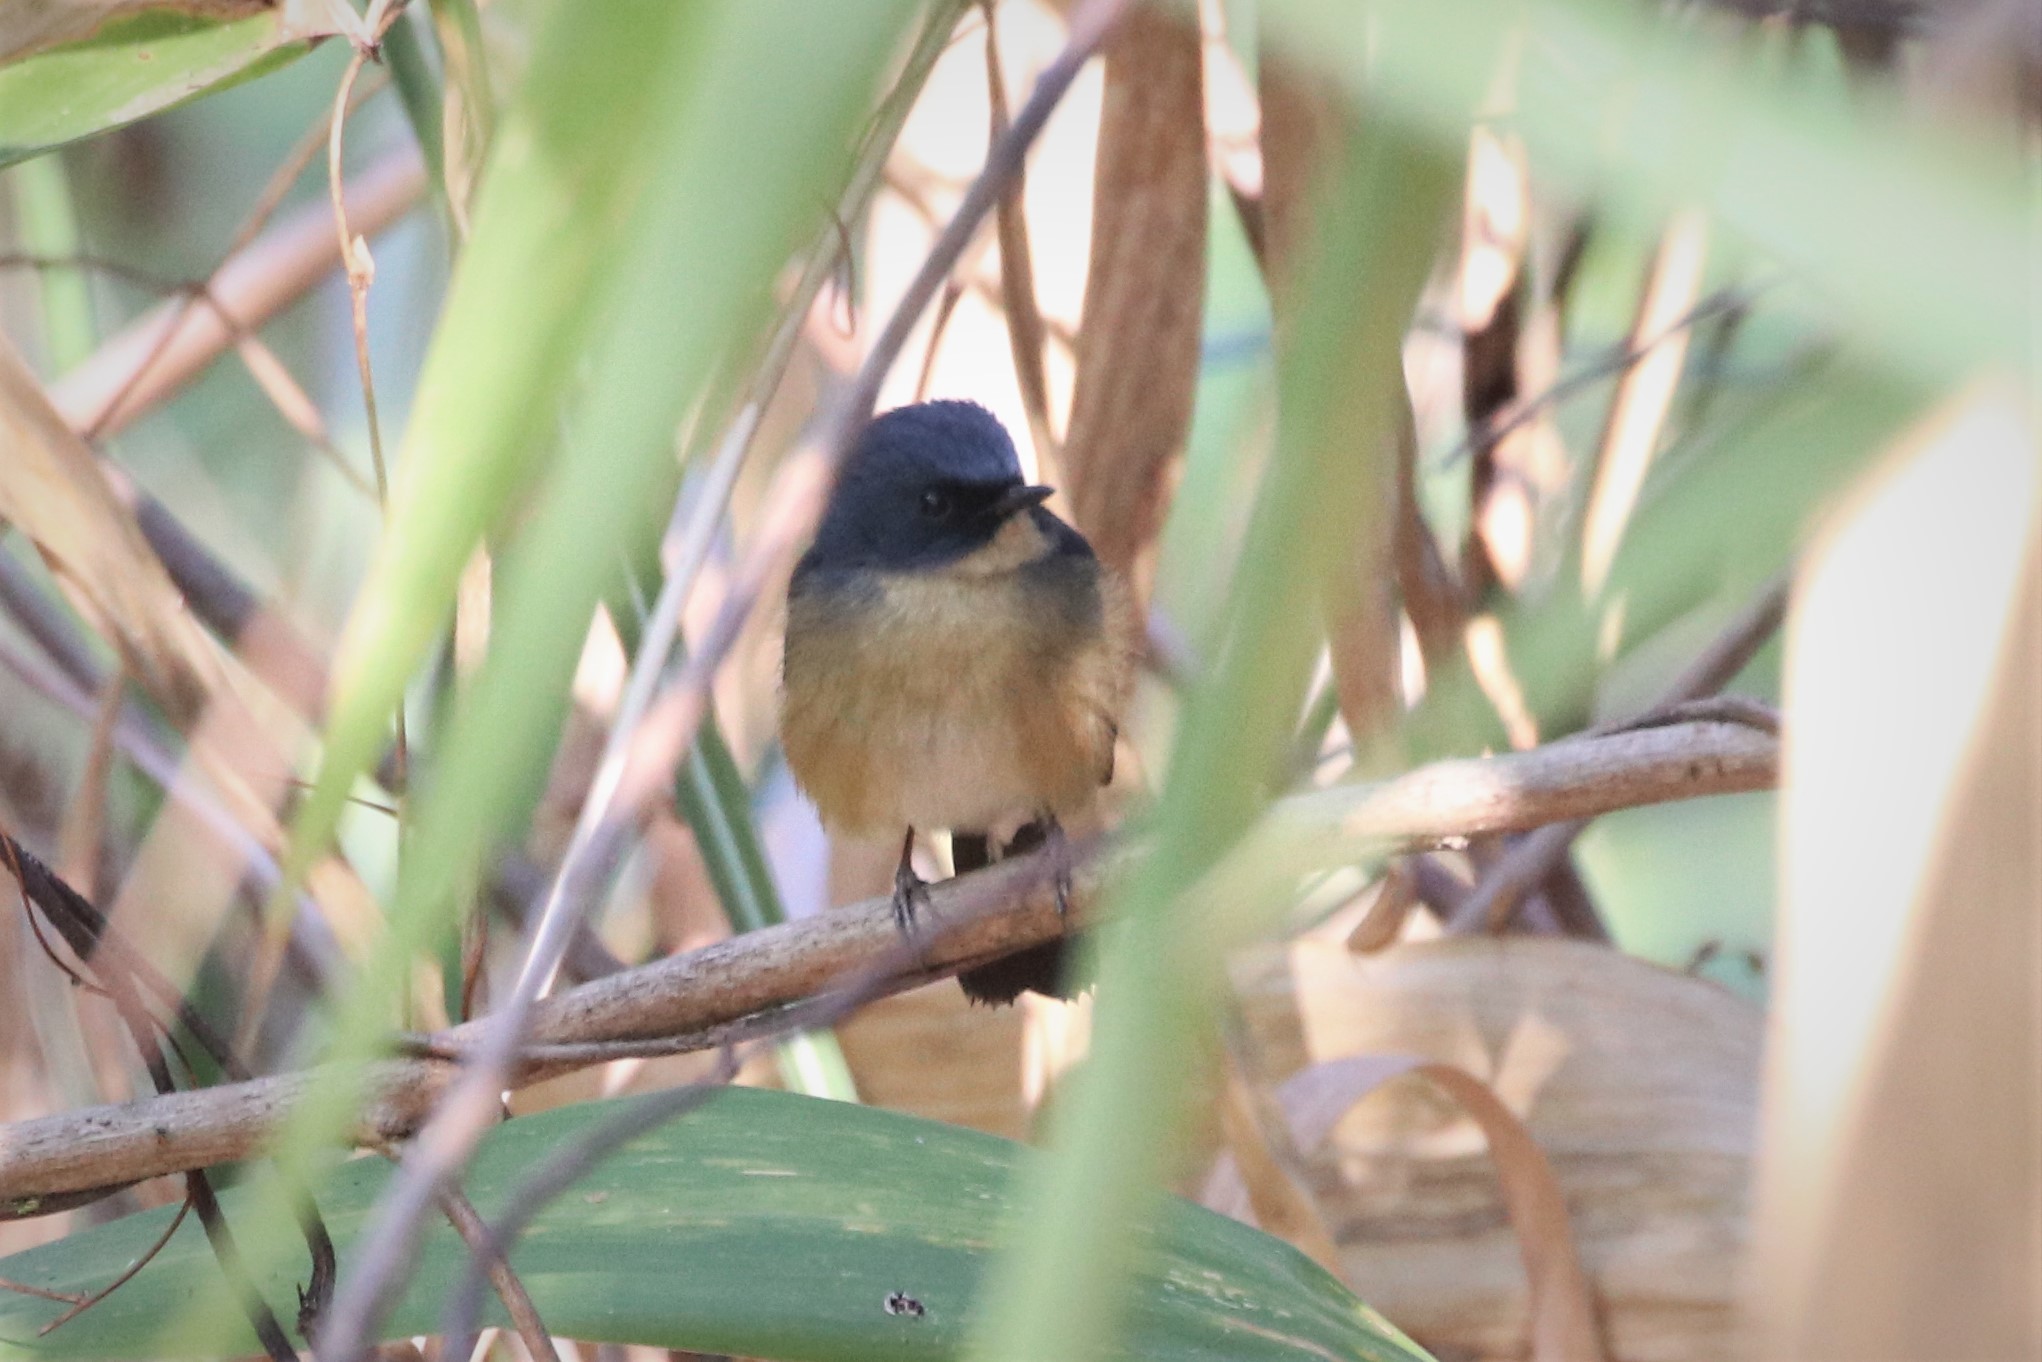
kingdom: Animalia
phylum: Chordata
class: Aves
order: Passeriformes
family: Muscicapidae
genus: Ficedula
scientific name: Ficedula tricolor
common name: Slaty-blue flycatcher
